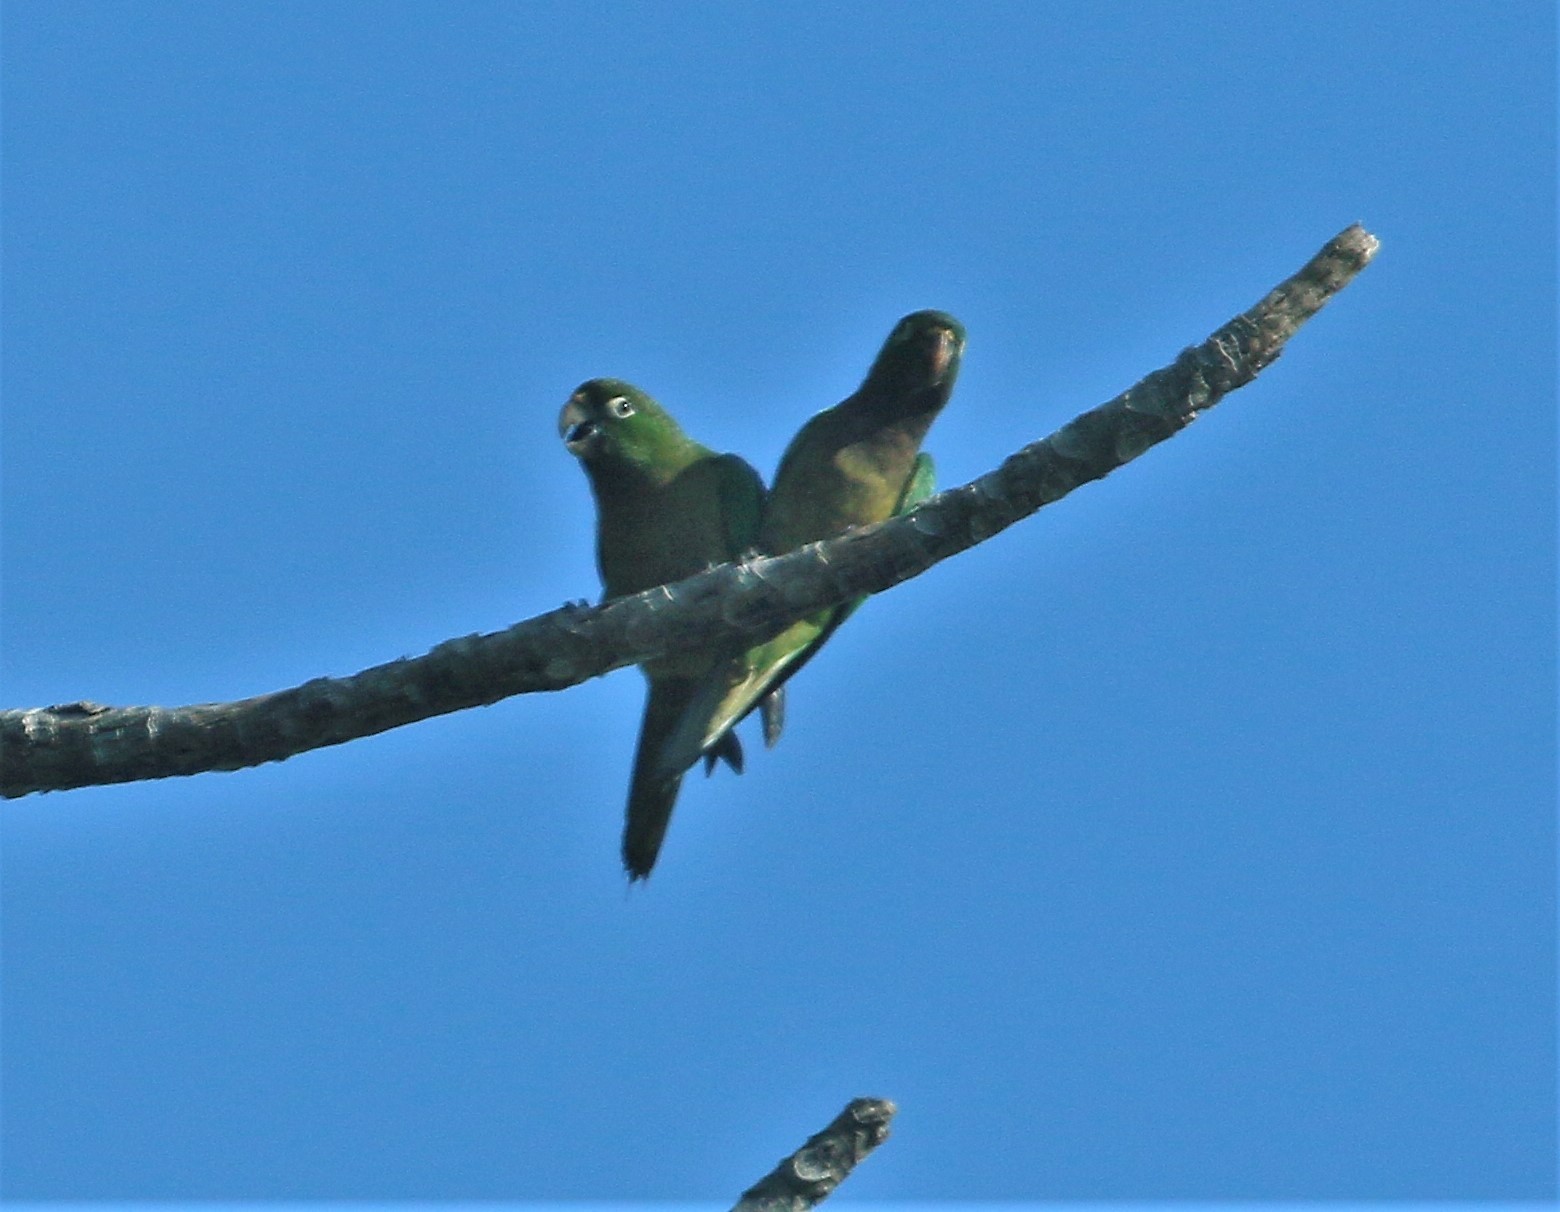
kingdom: Animalia
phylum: Chordata
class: Aves
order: Psittaciformes
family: Psittacidae
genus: Aratinga
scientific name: Aratinga nana
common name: Olive-throated parakeet
